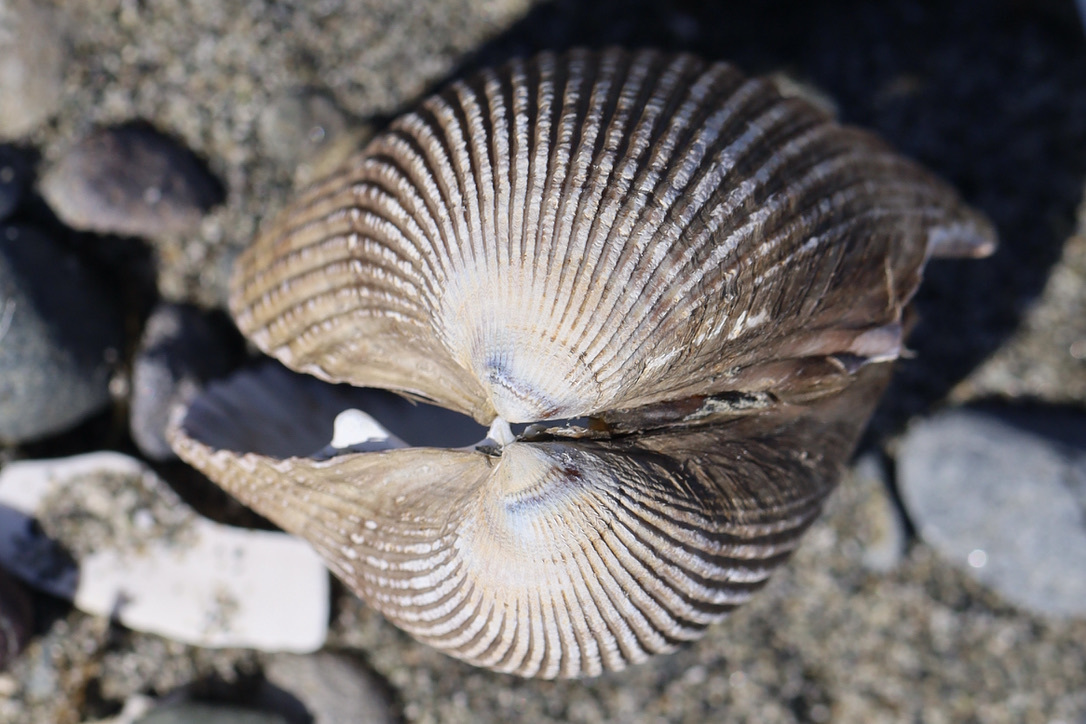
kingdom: Animalia
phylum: Mollusca
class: Bivalvia
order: Cardiida
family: Cardiidae
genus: Clinocardium
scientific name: Clinocardium nuttallii
